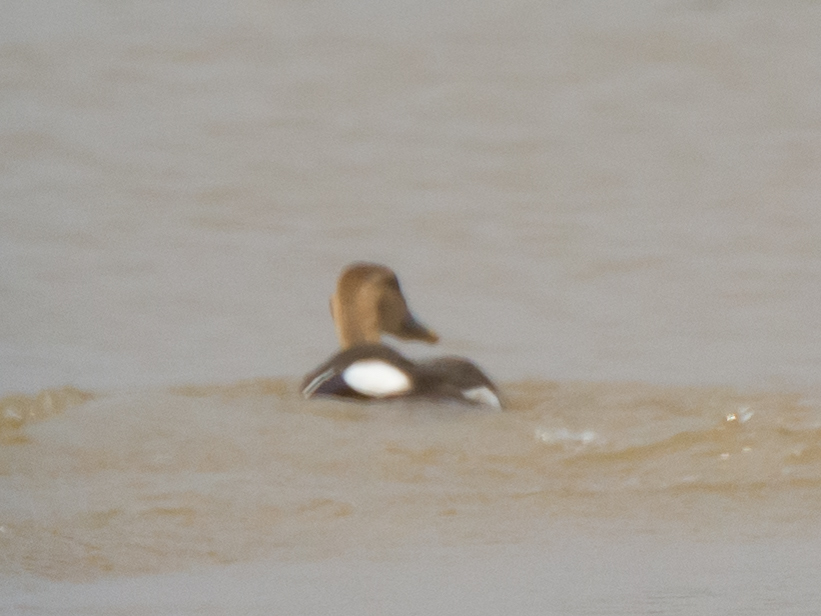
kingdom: Animalia
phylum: Chordata
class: Aves
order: Anseriformes
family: Anatidae
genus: Anas
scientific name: Anas poecilorhyncha
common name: Indian spot-billed duck
